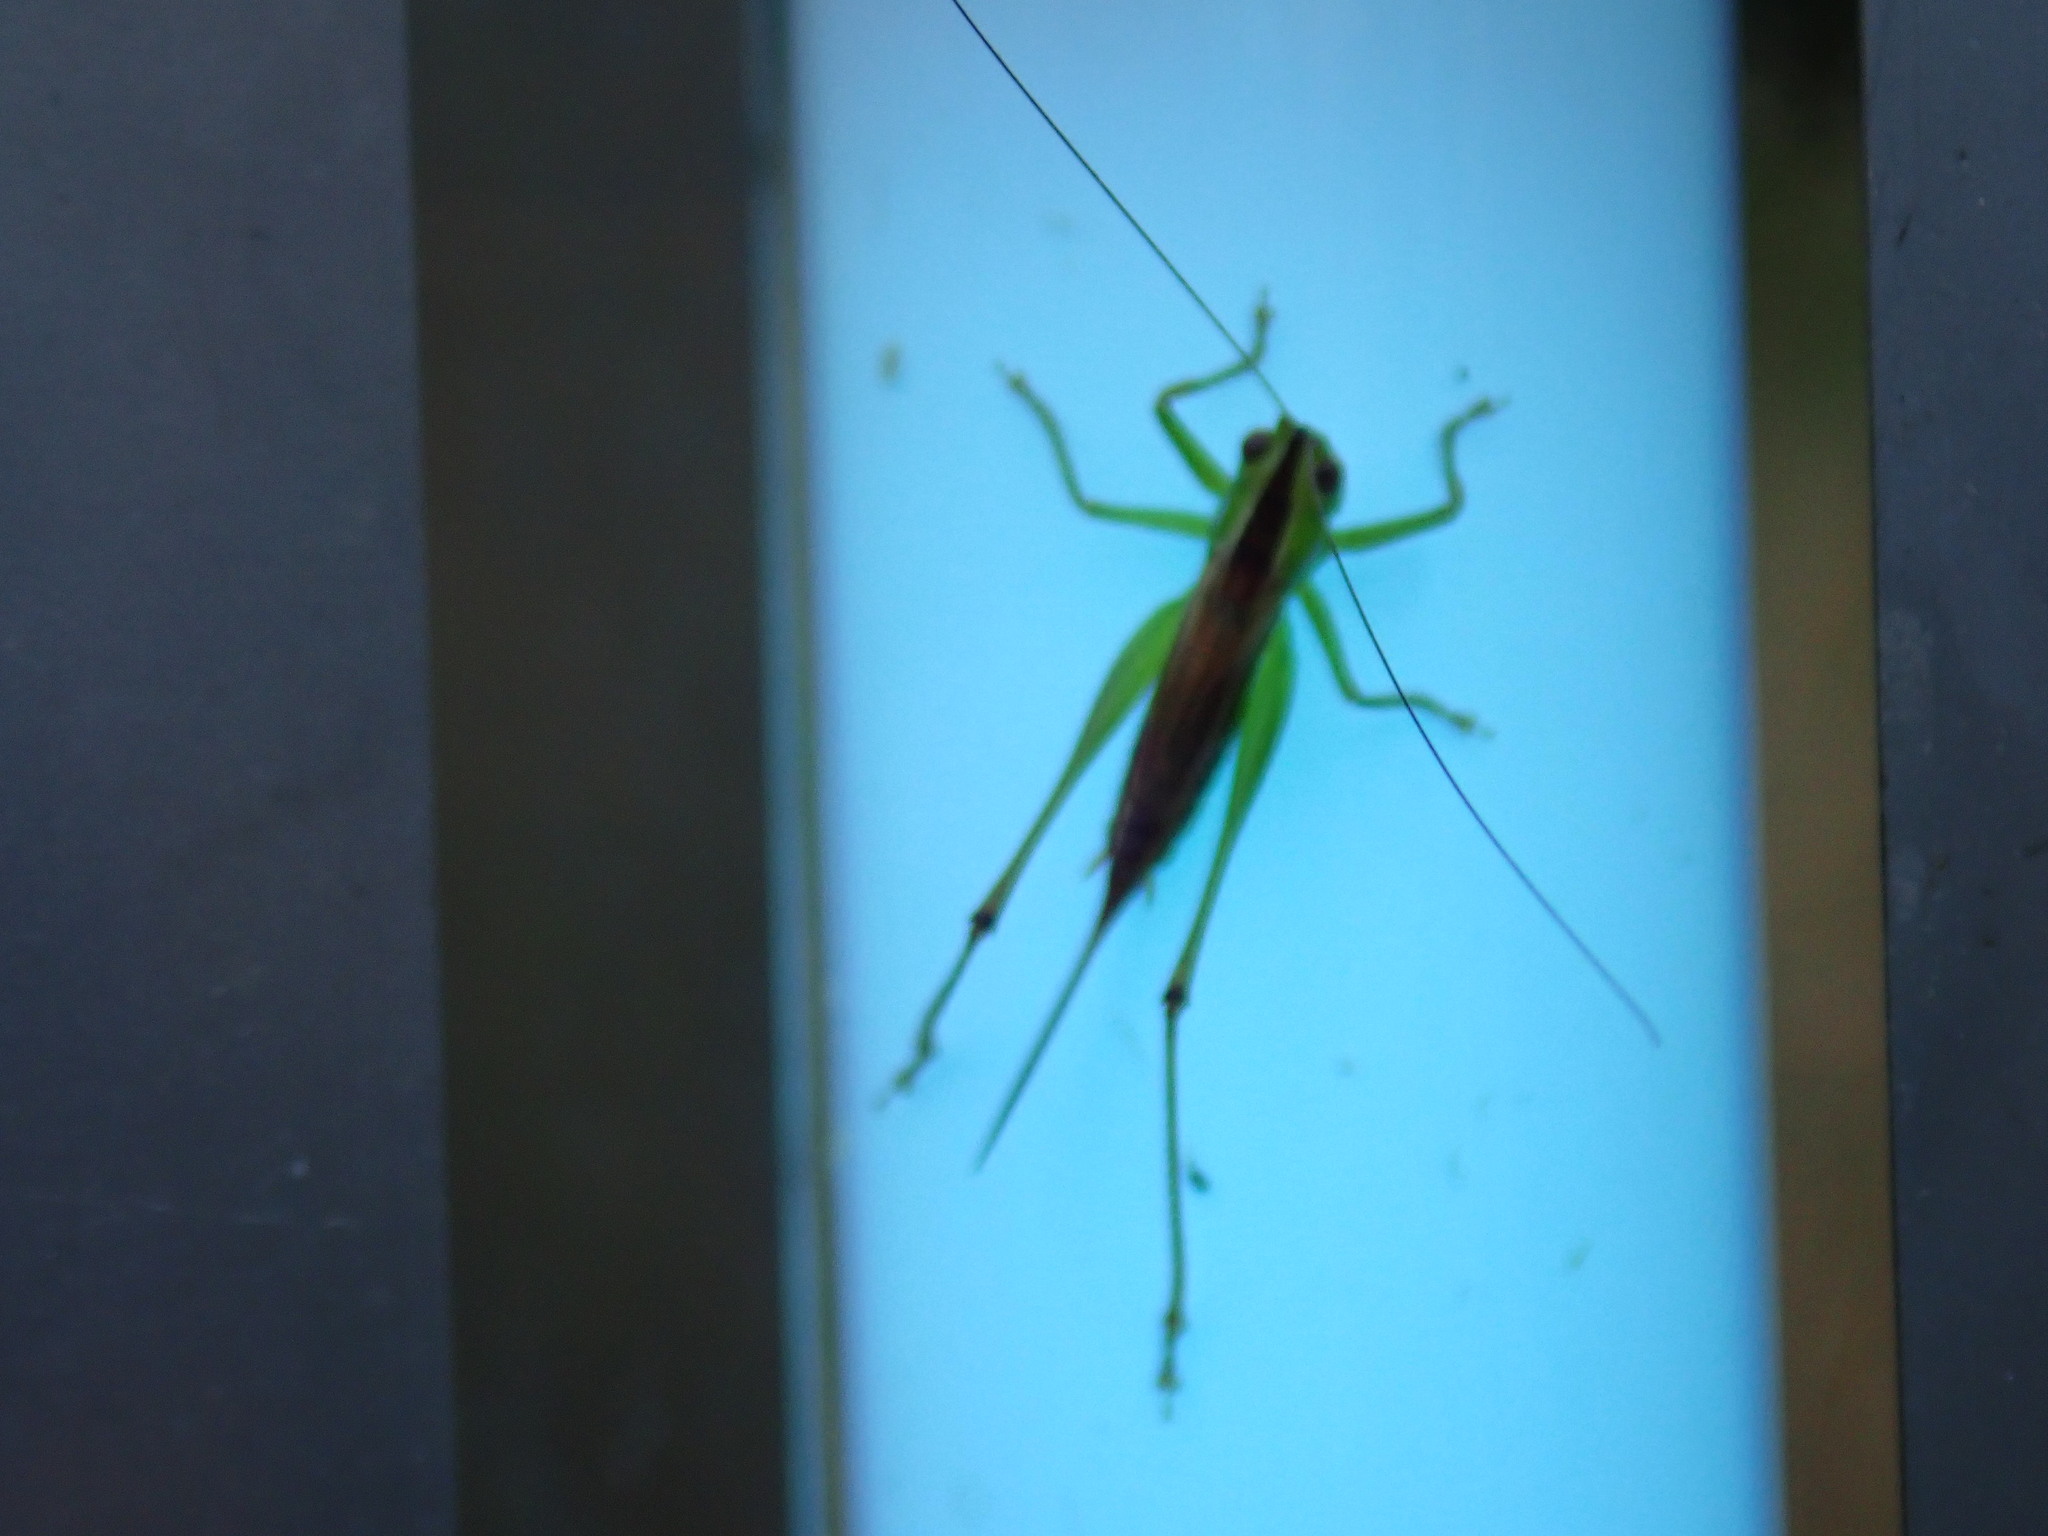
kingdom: Animalia
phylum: Arthropoda
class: Insecta
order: Orthoptera
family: Tettigoniidae
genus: Conocephalus
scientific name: Conocephalus brevipennis
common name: Short-winged meadow katydid
